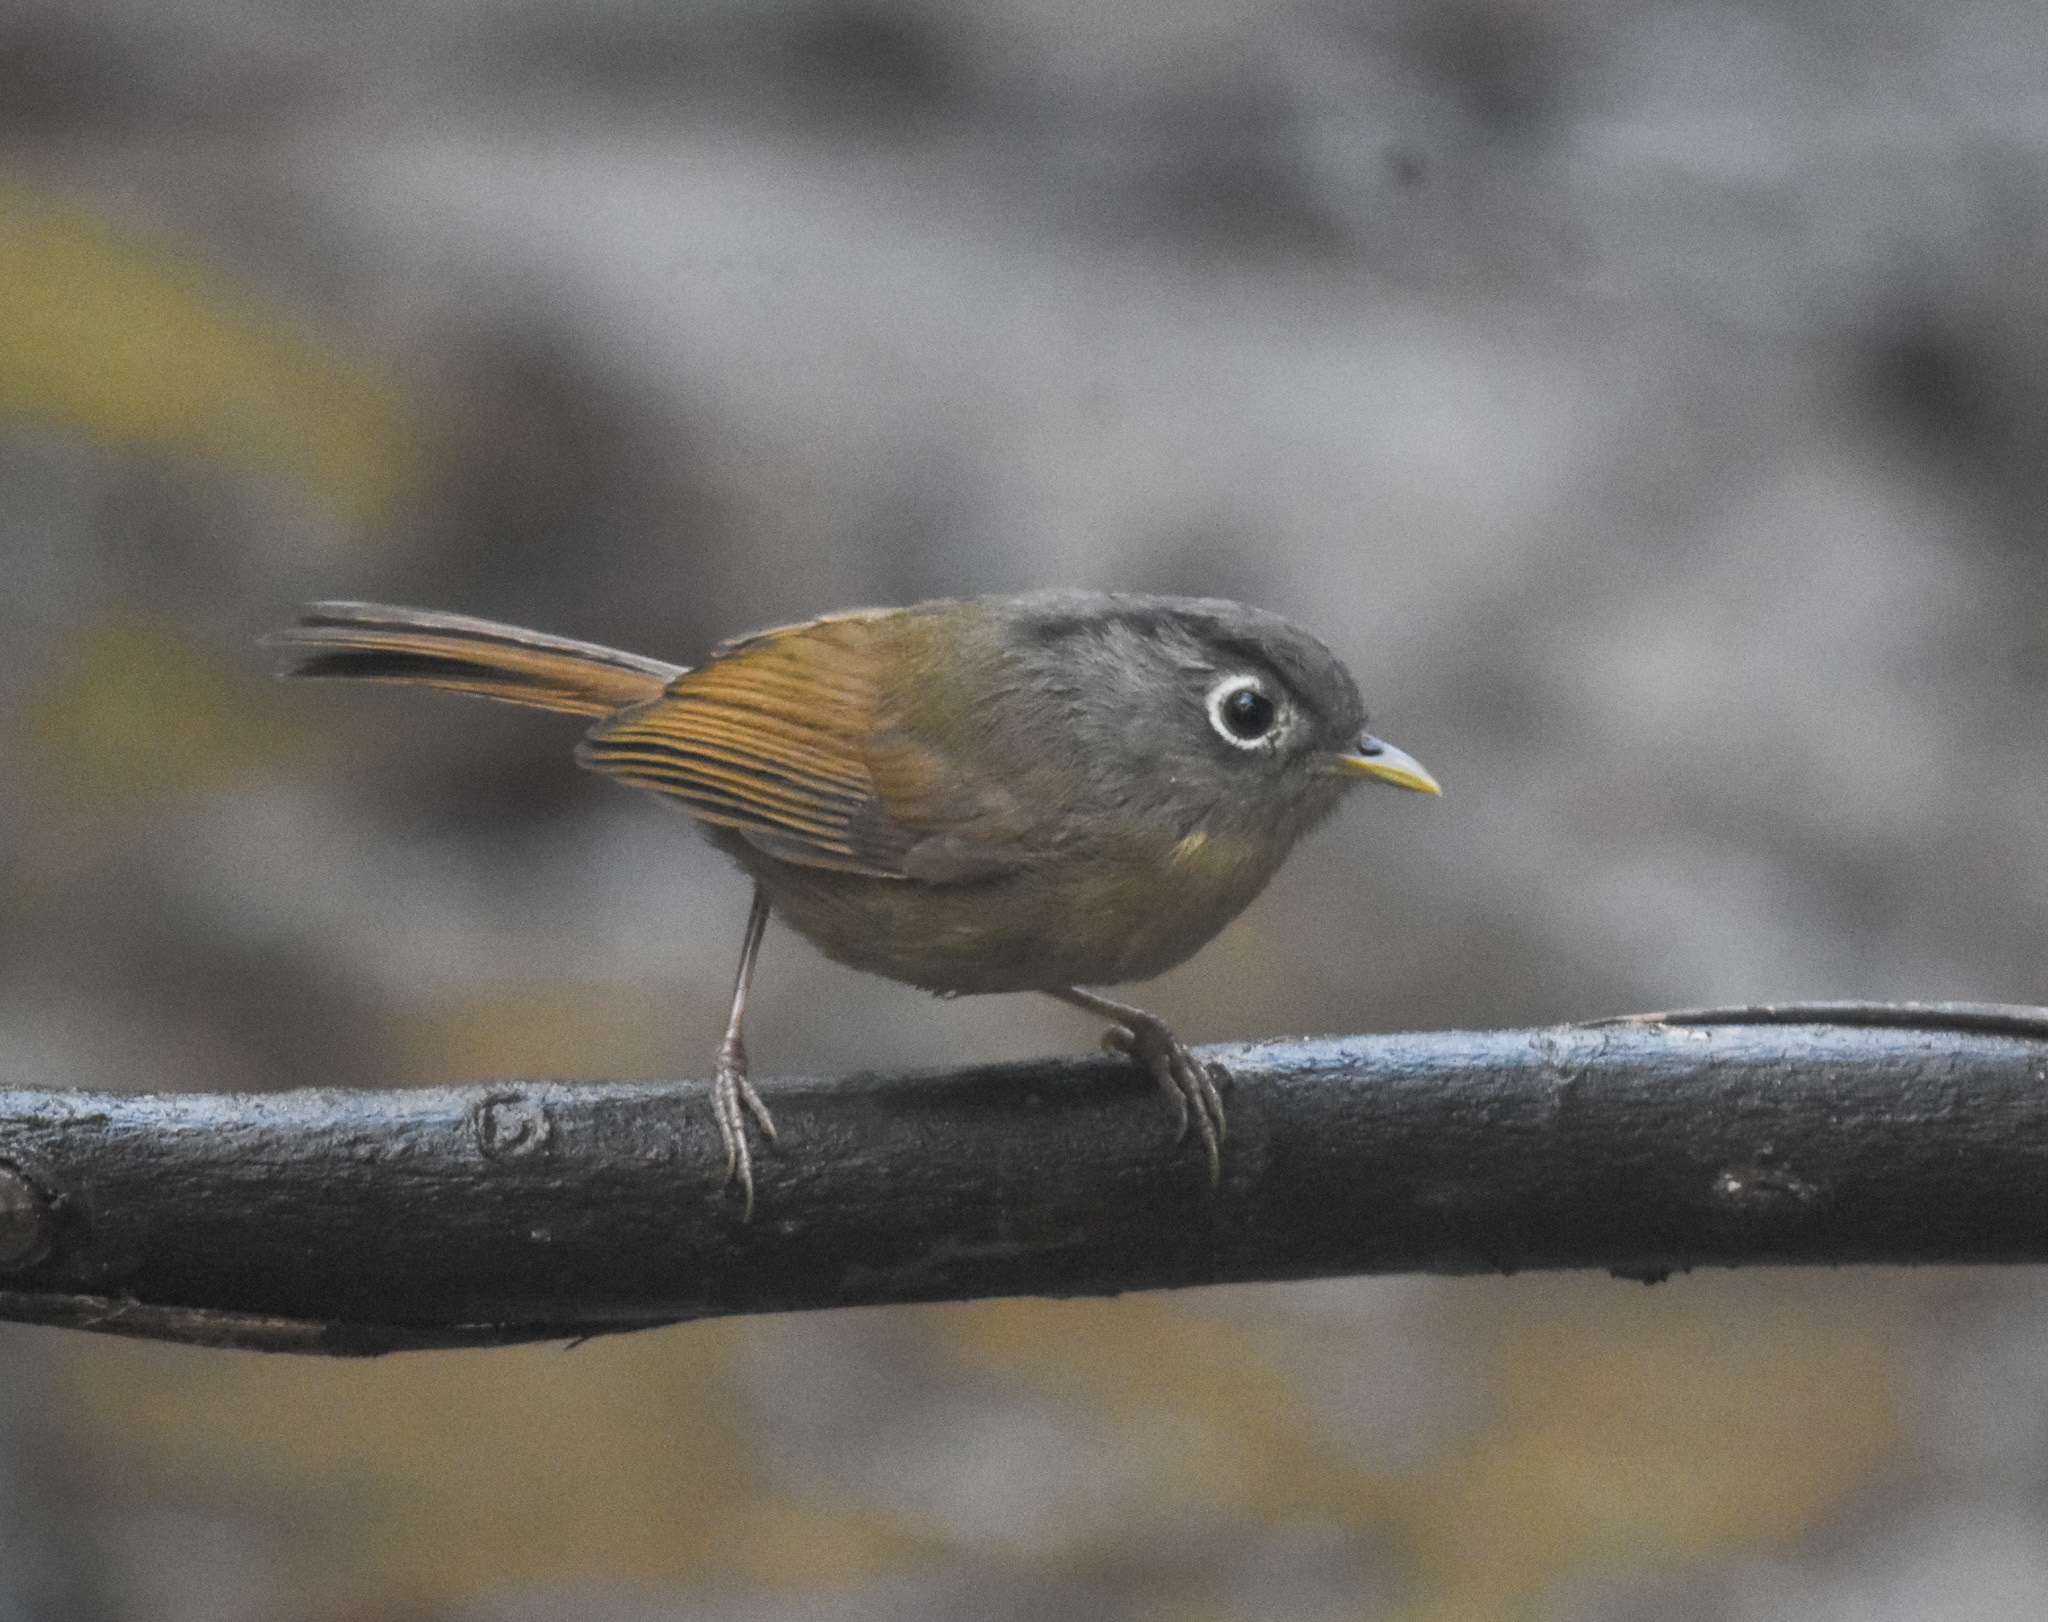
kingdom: Animalia
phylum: Chordata
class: Aves
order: Passeriformes
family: Pellorneidae
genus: Alcippe
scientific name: Alcippe nipalensis
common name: Nepal fulvetta
